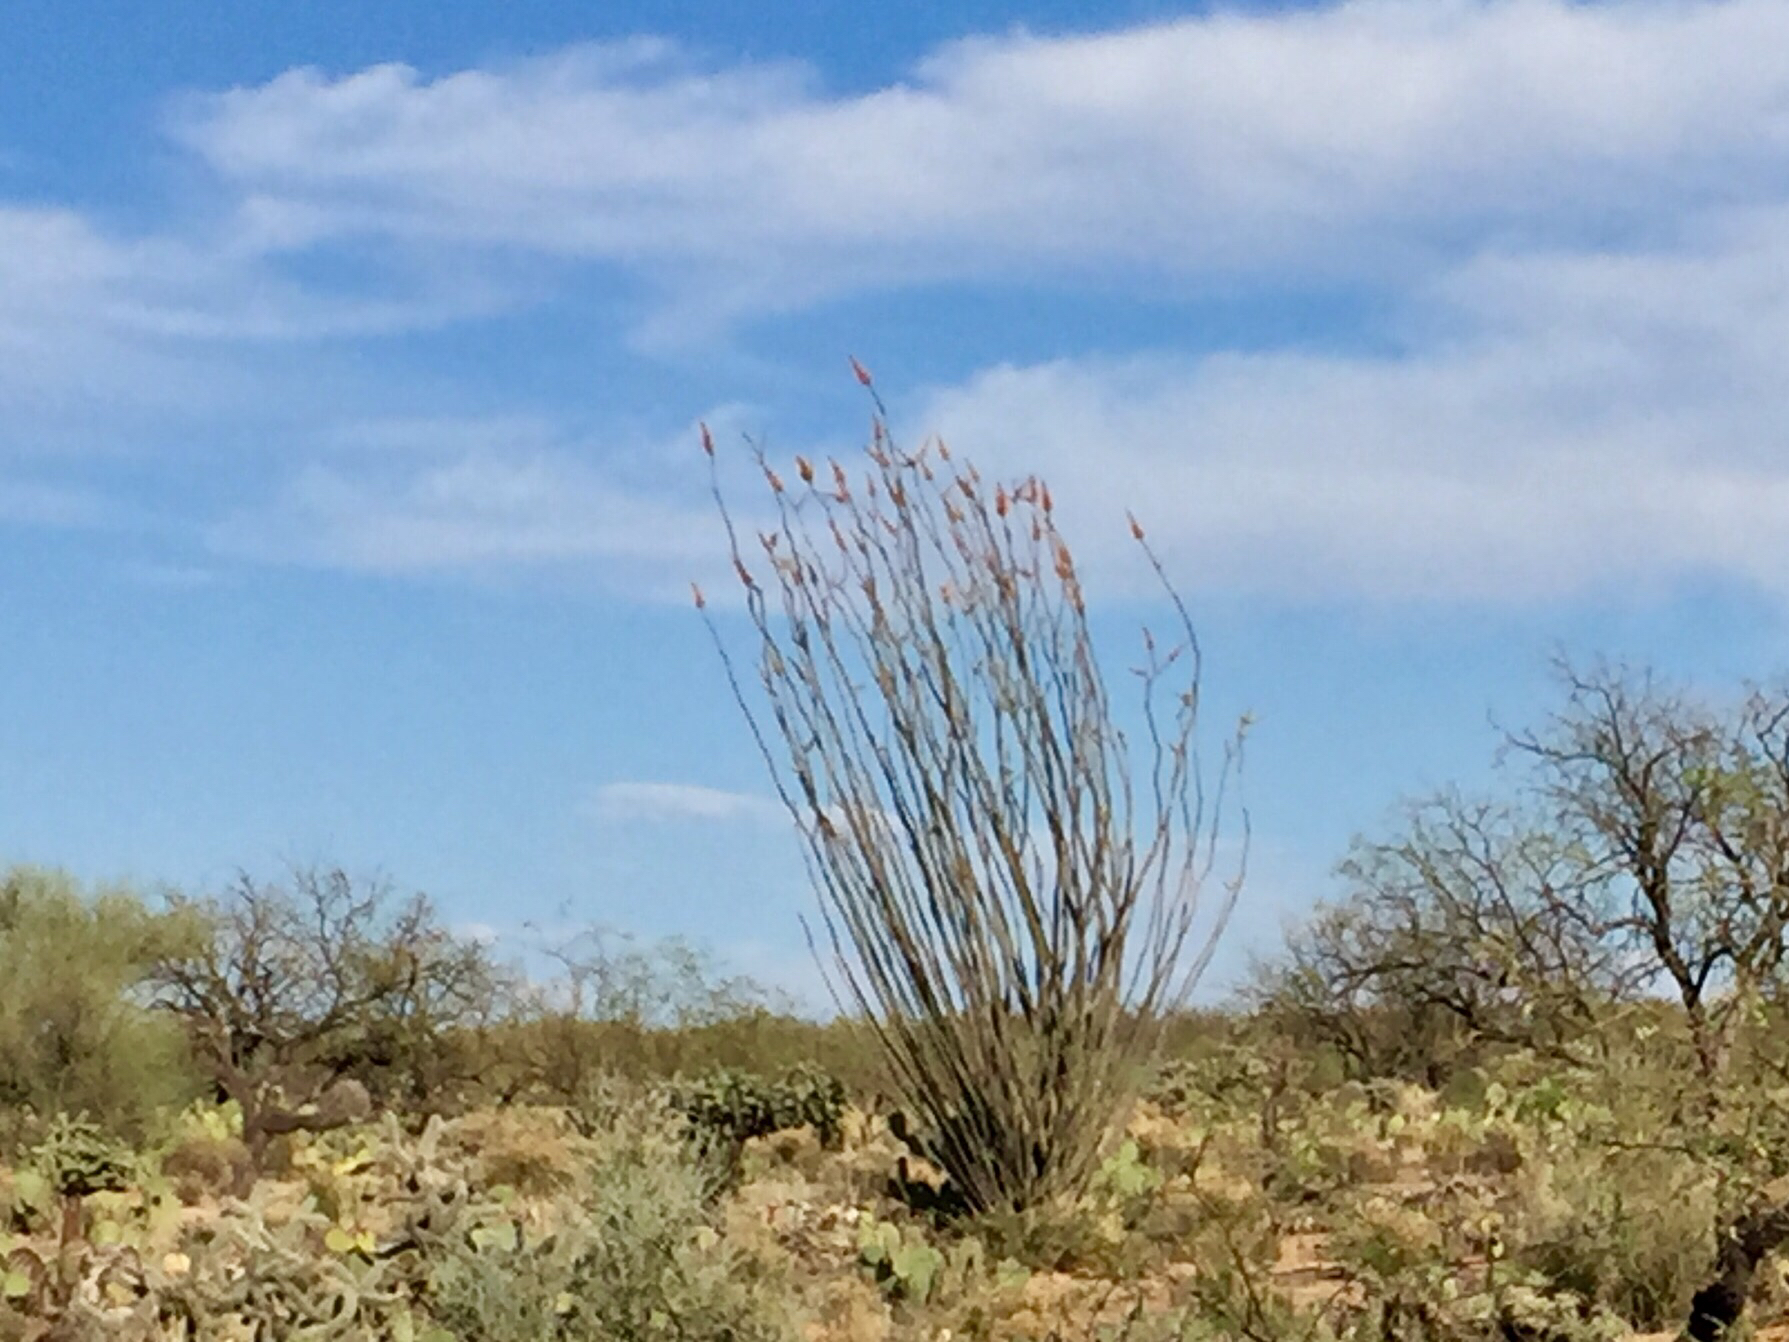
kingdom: Plantae
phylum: Tracheophyta
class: Magnoliopsida
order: Ericales
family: Fouquieriaceae
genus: Fouquieria
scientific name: Fouquieria splendens
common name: Vine-cactus
